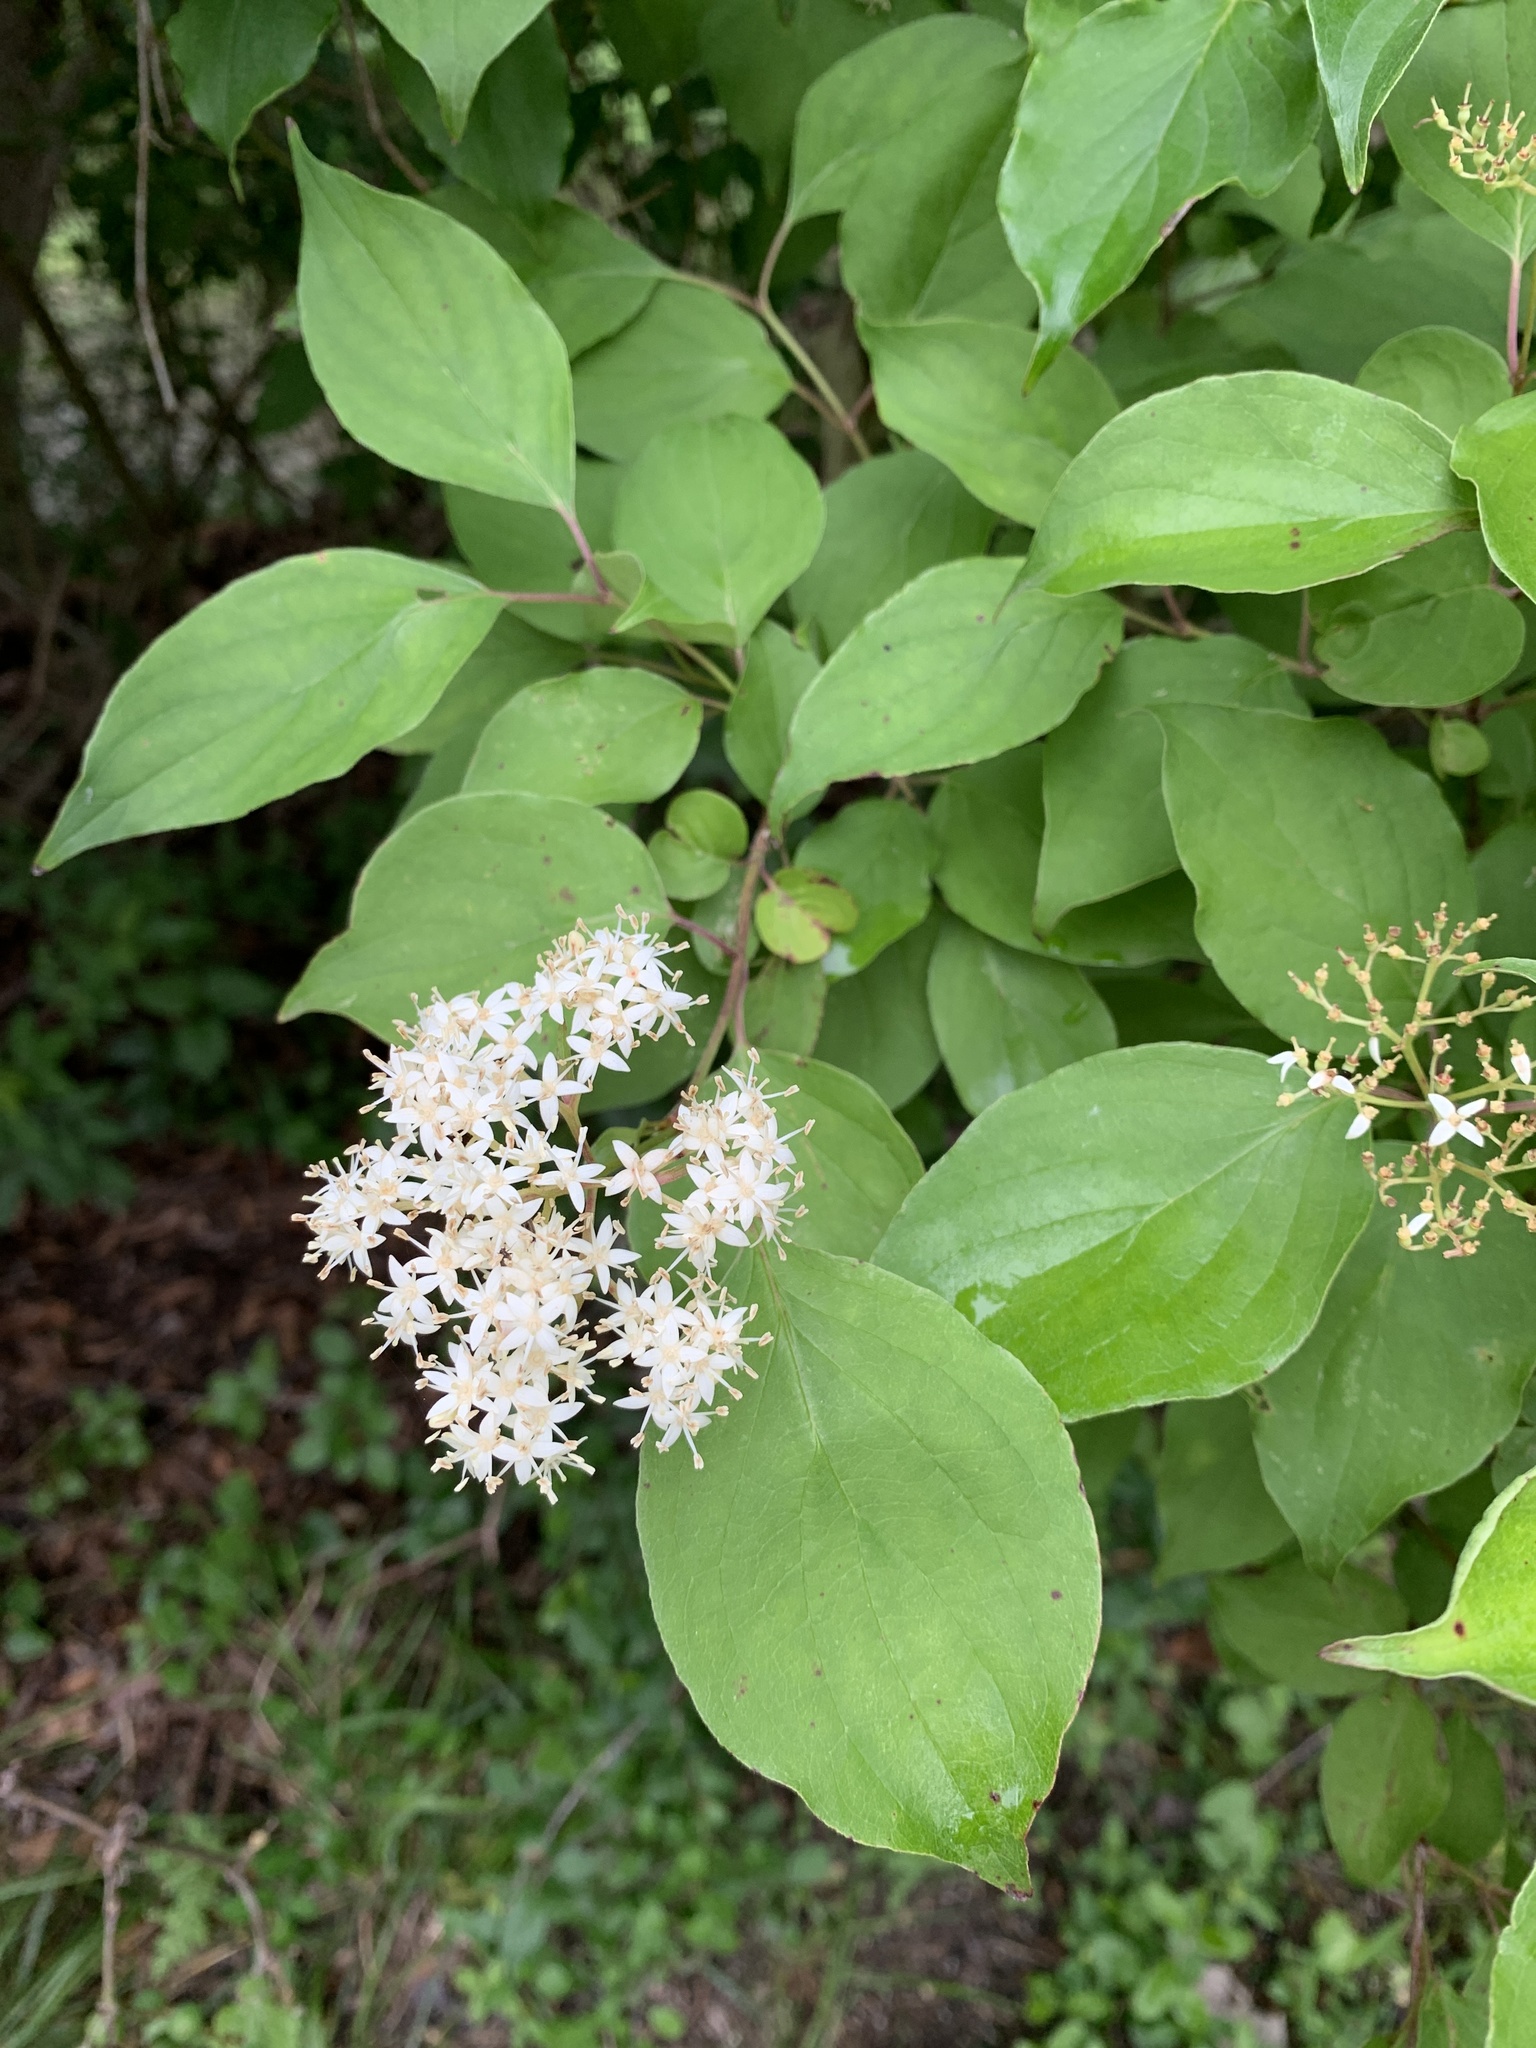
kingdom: Plantae
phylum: Tracheophyta
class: Magnoliopsida
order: Cornales
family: Cornaceae
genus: Cornus
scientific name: Cornus drummondii
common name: Rough-leaf dogwood
